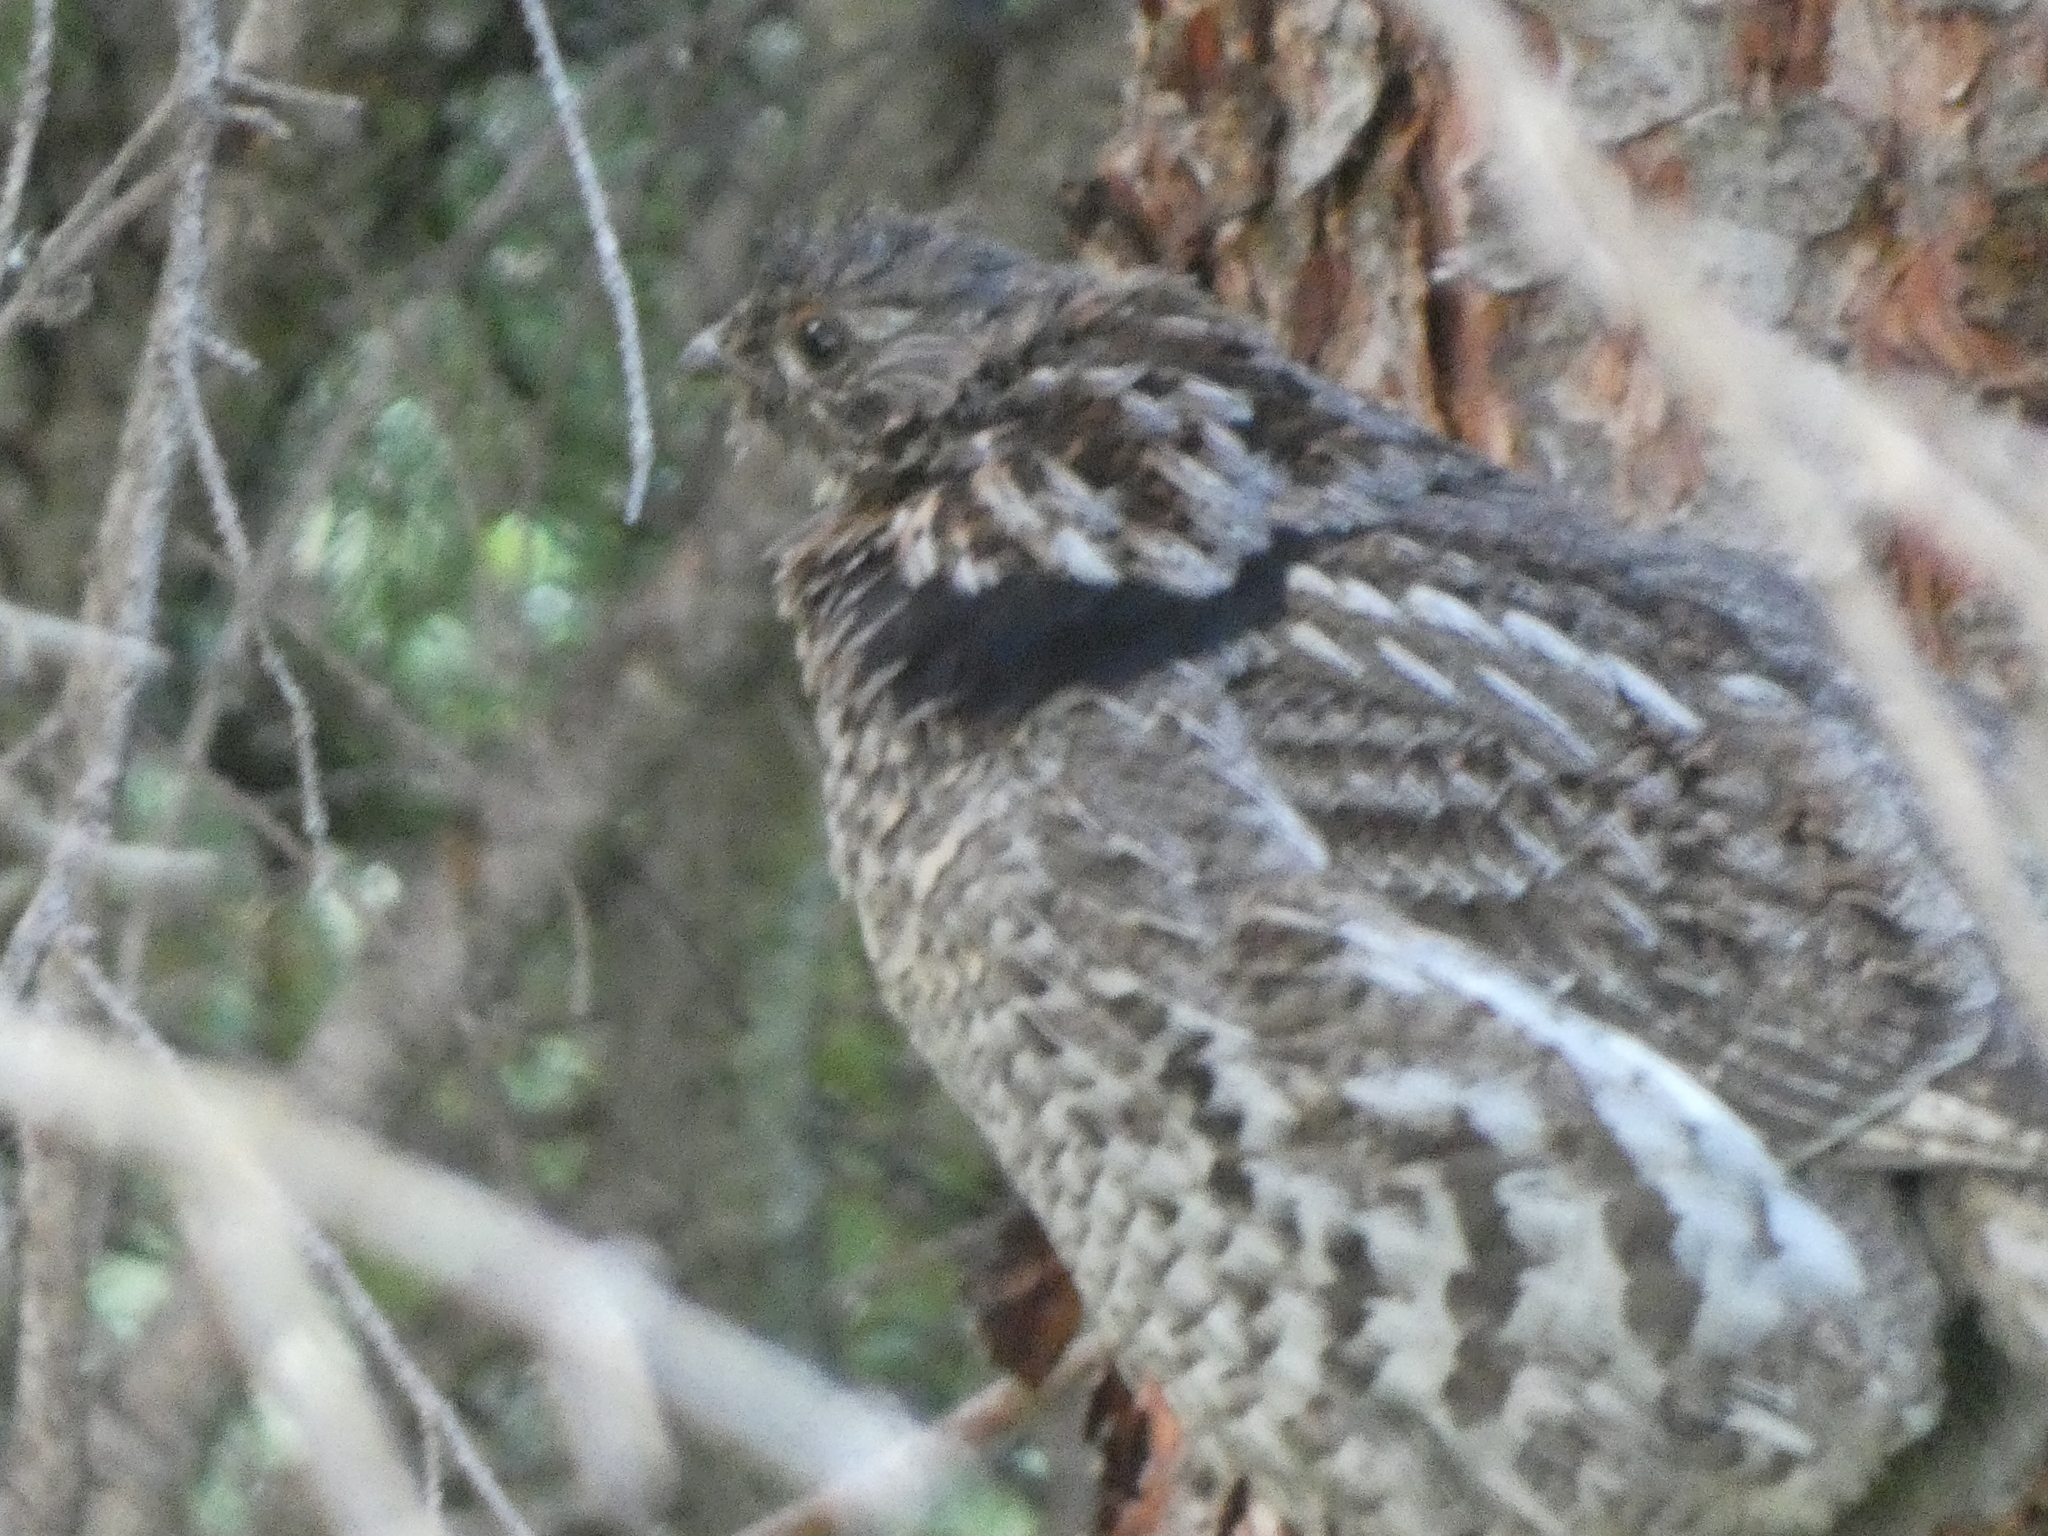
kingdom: Animalia
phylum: Chordata
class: Aves
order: Galliformes
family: Phasianidae
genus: Bonasa
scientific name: Bonasa umbellus
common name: Ruffed grouse
